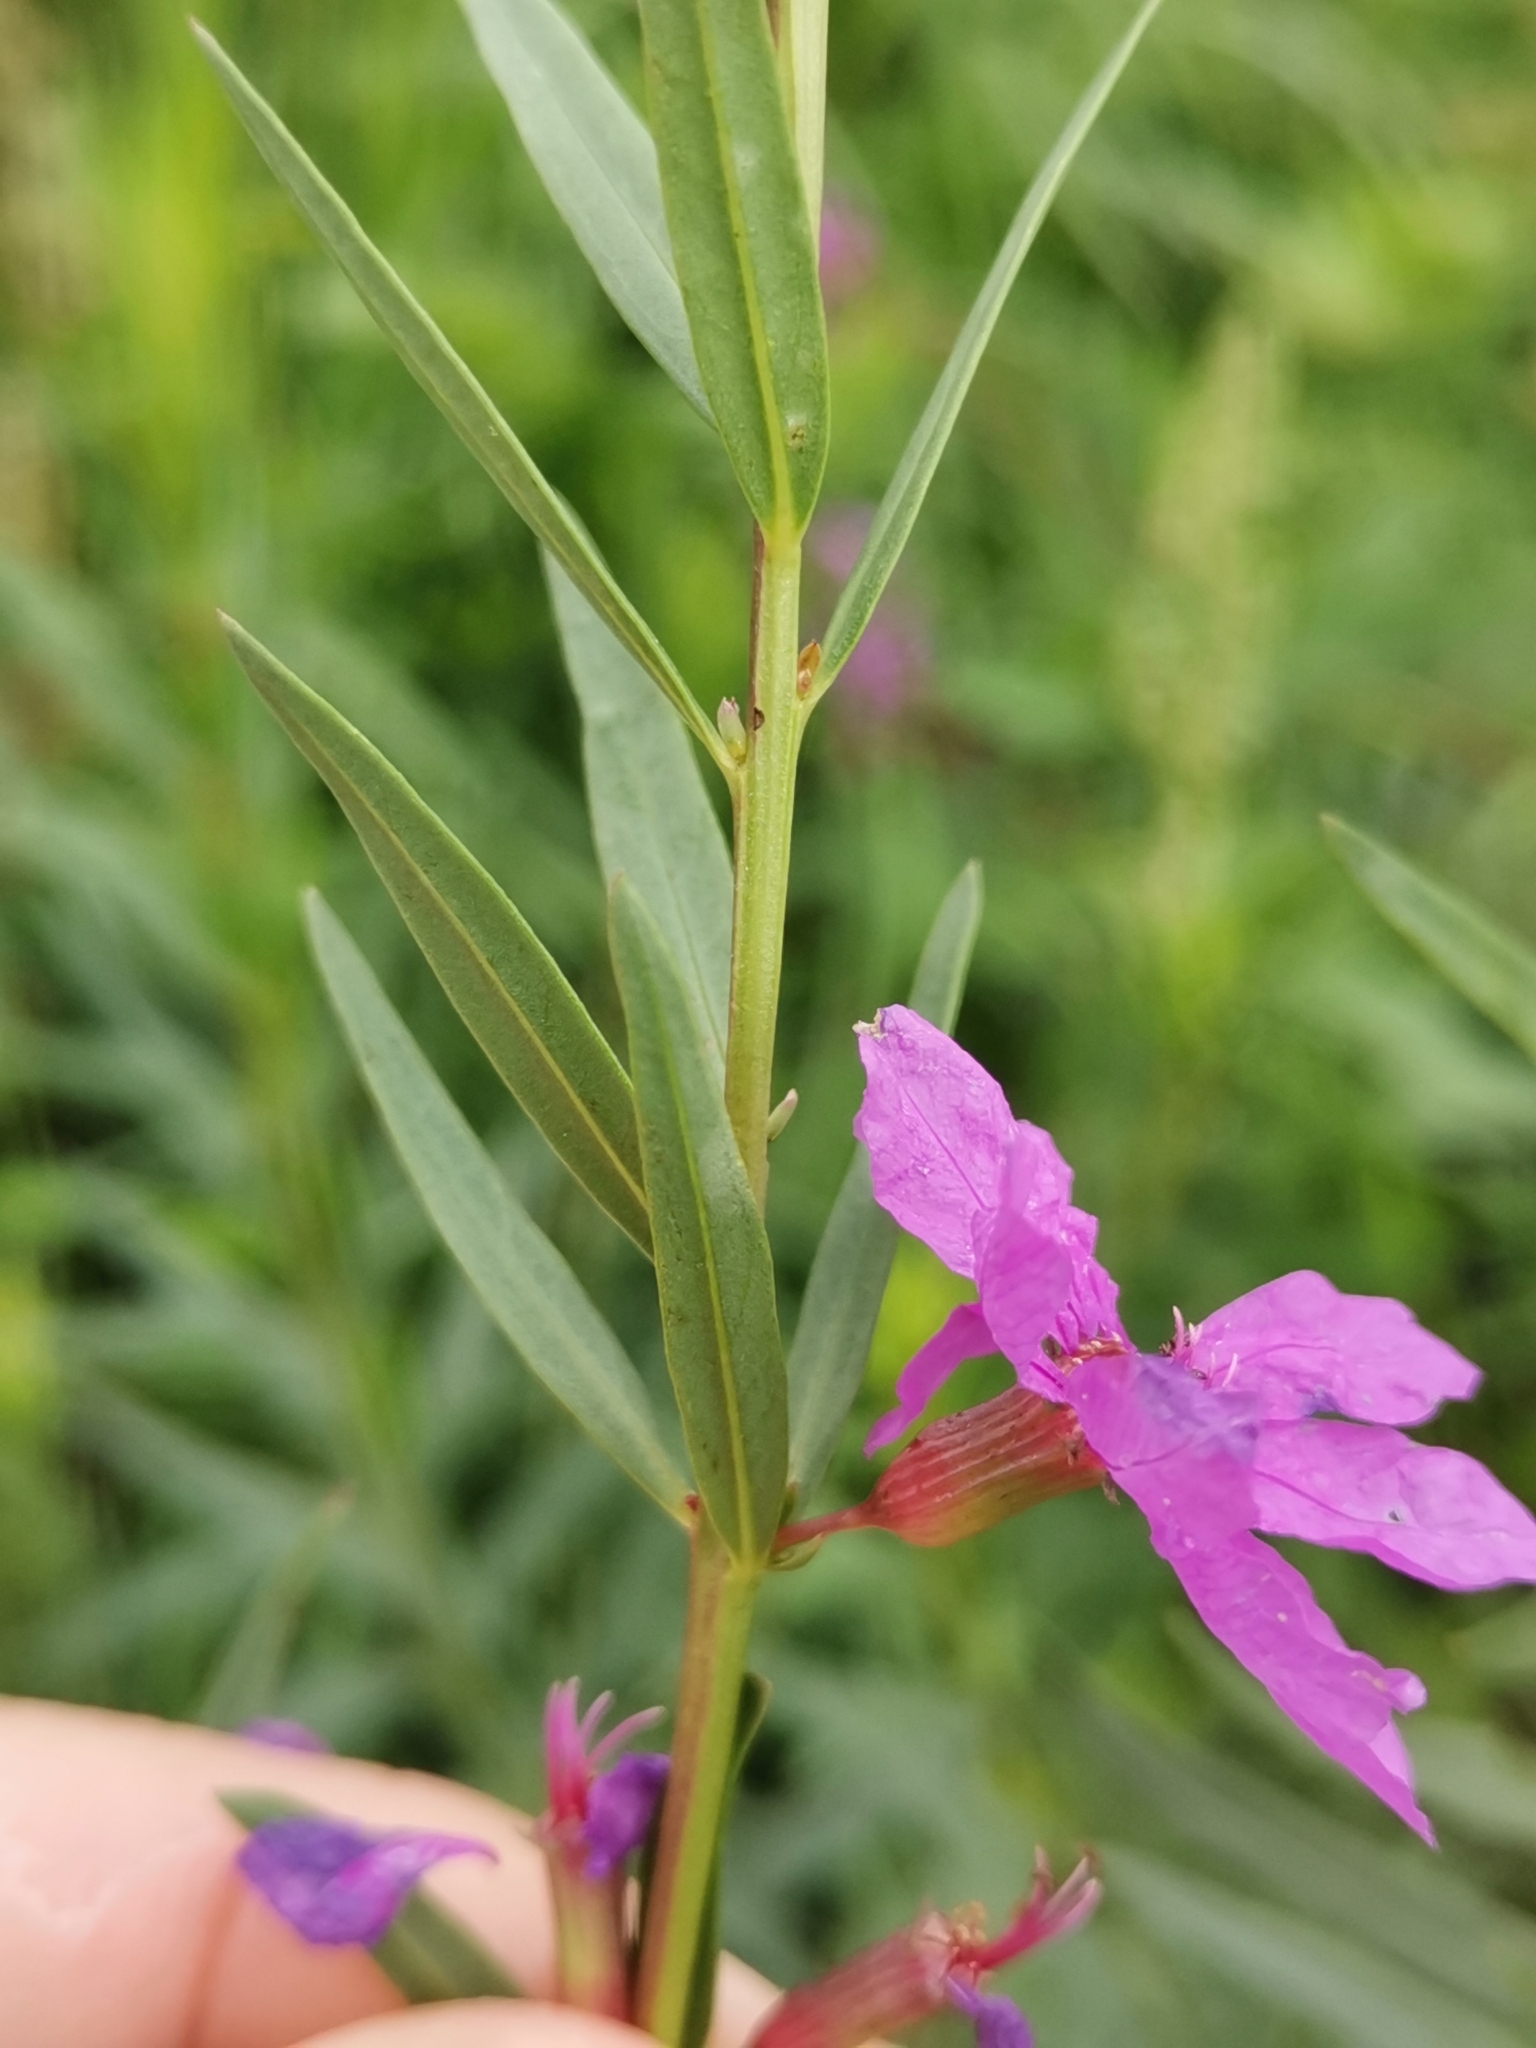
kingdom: Plantae
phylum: Tracheophyta
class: Magnoliopsida
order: Myrtales
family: Lythraceae
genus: Lythrum
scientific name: Lythrum virgatum
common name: European wand loosestrife
